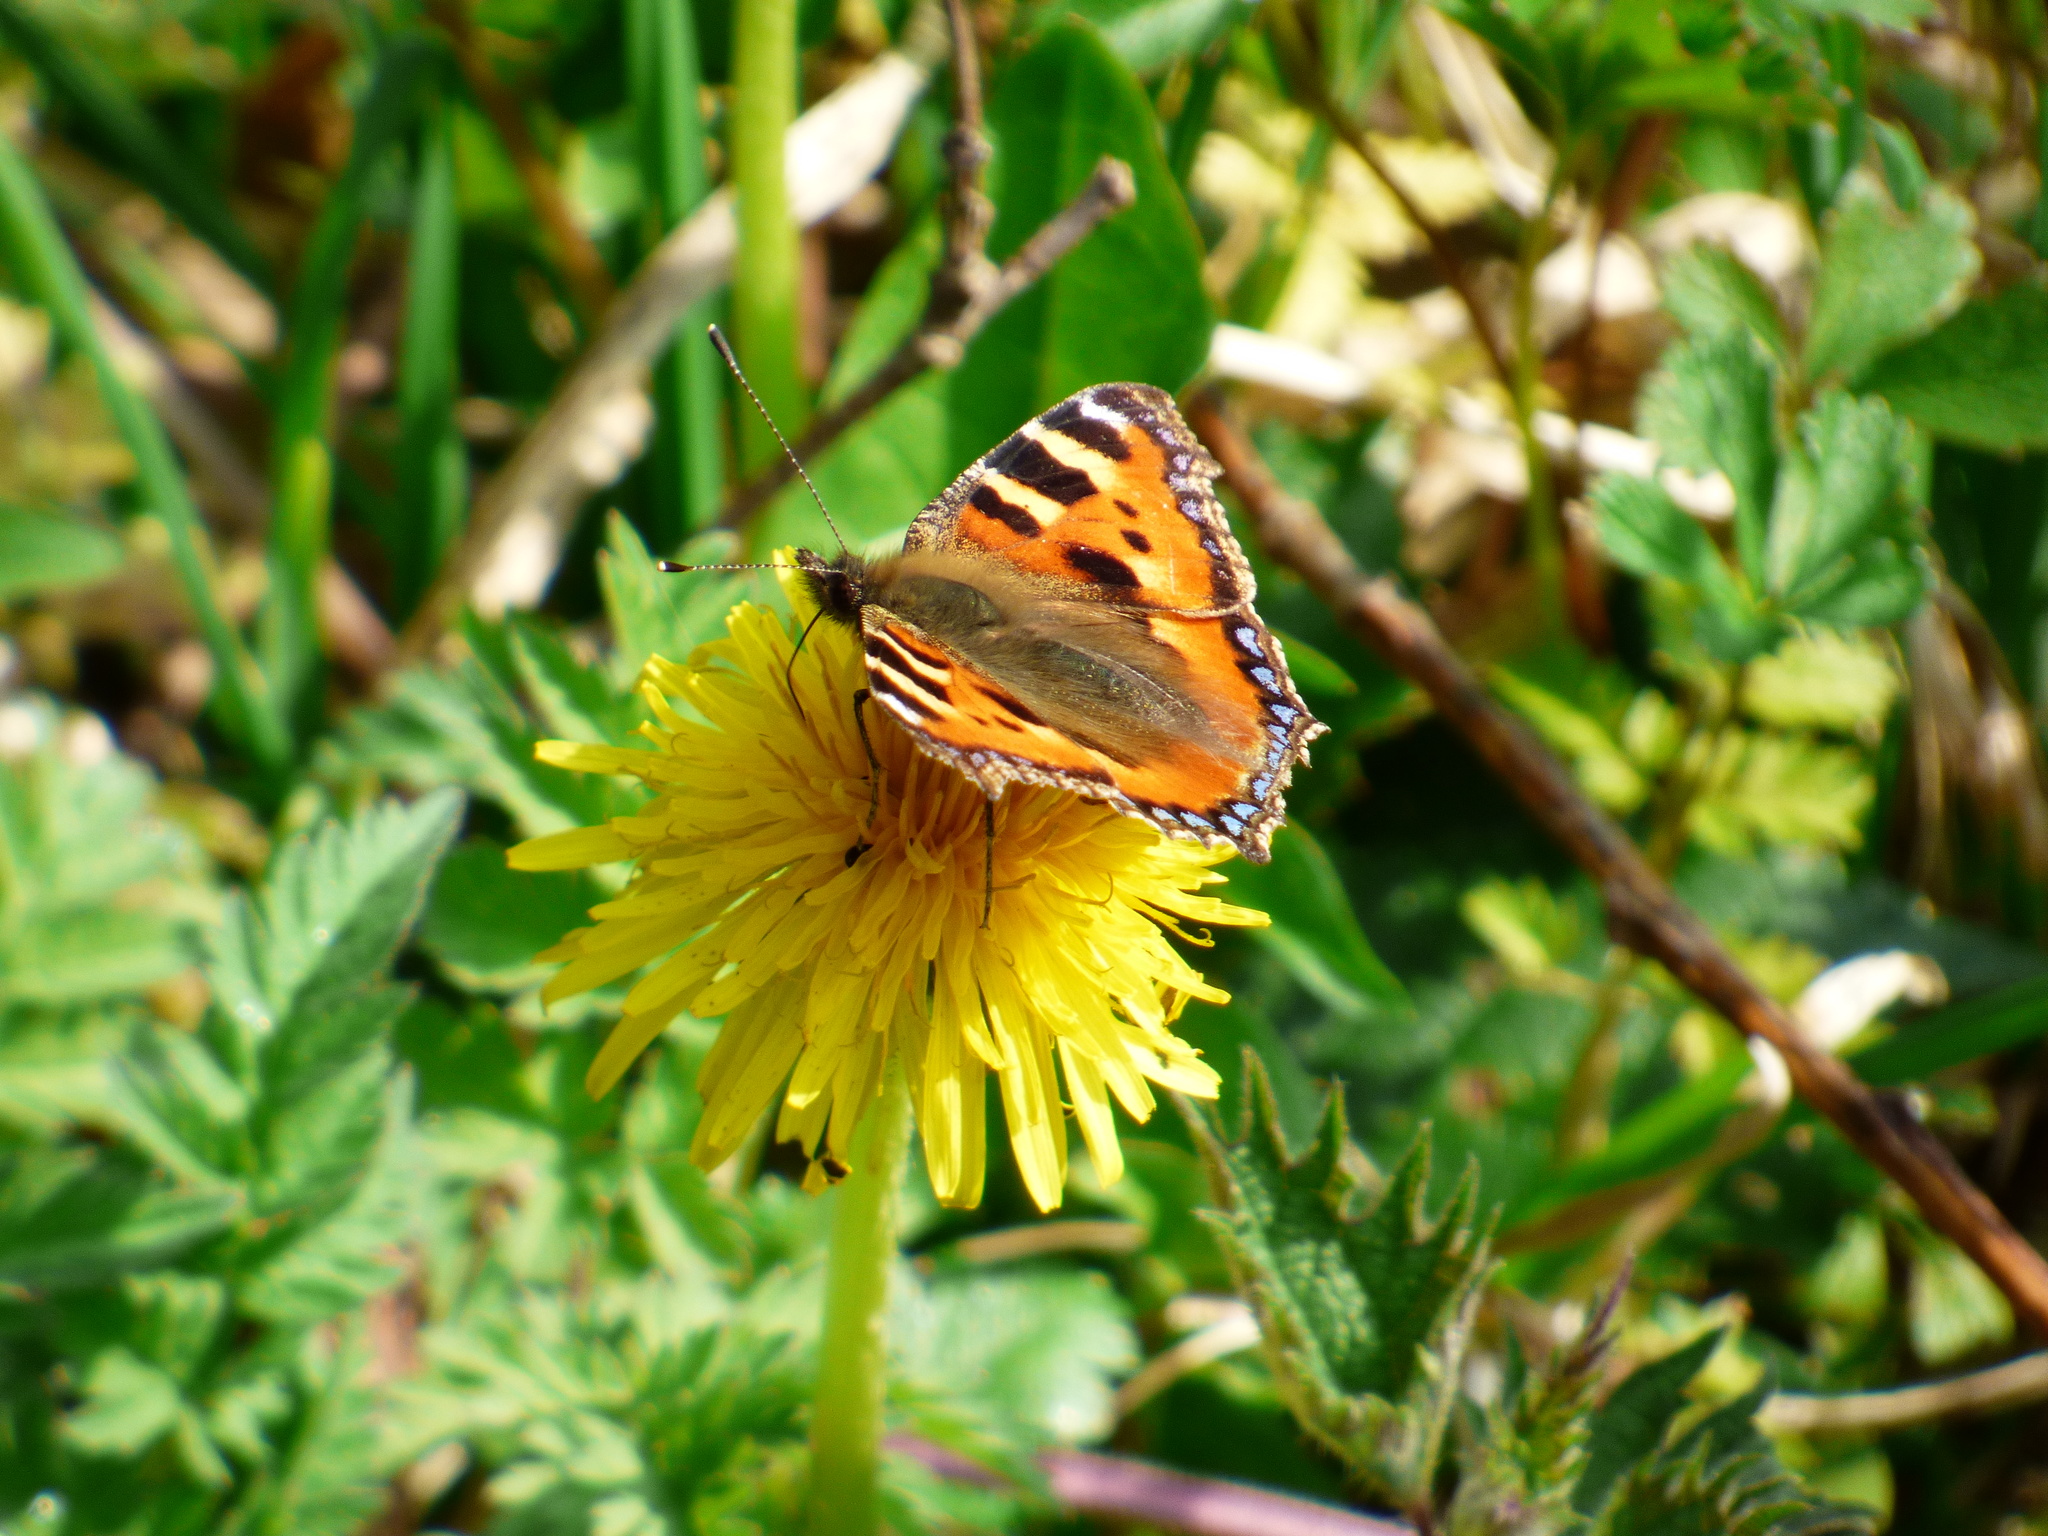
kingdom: Animalia
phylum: Arthropoda
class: Insecta
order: Lepidoptera
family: Nymphalidae
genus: Aglais
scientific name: Aglais urticae
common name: Small tortoiseshell
